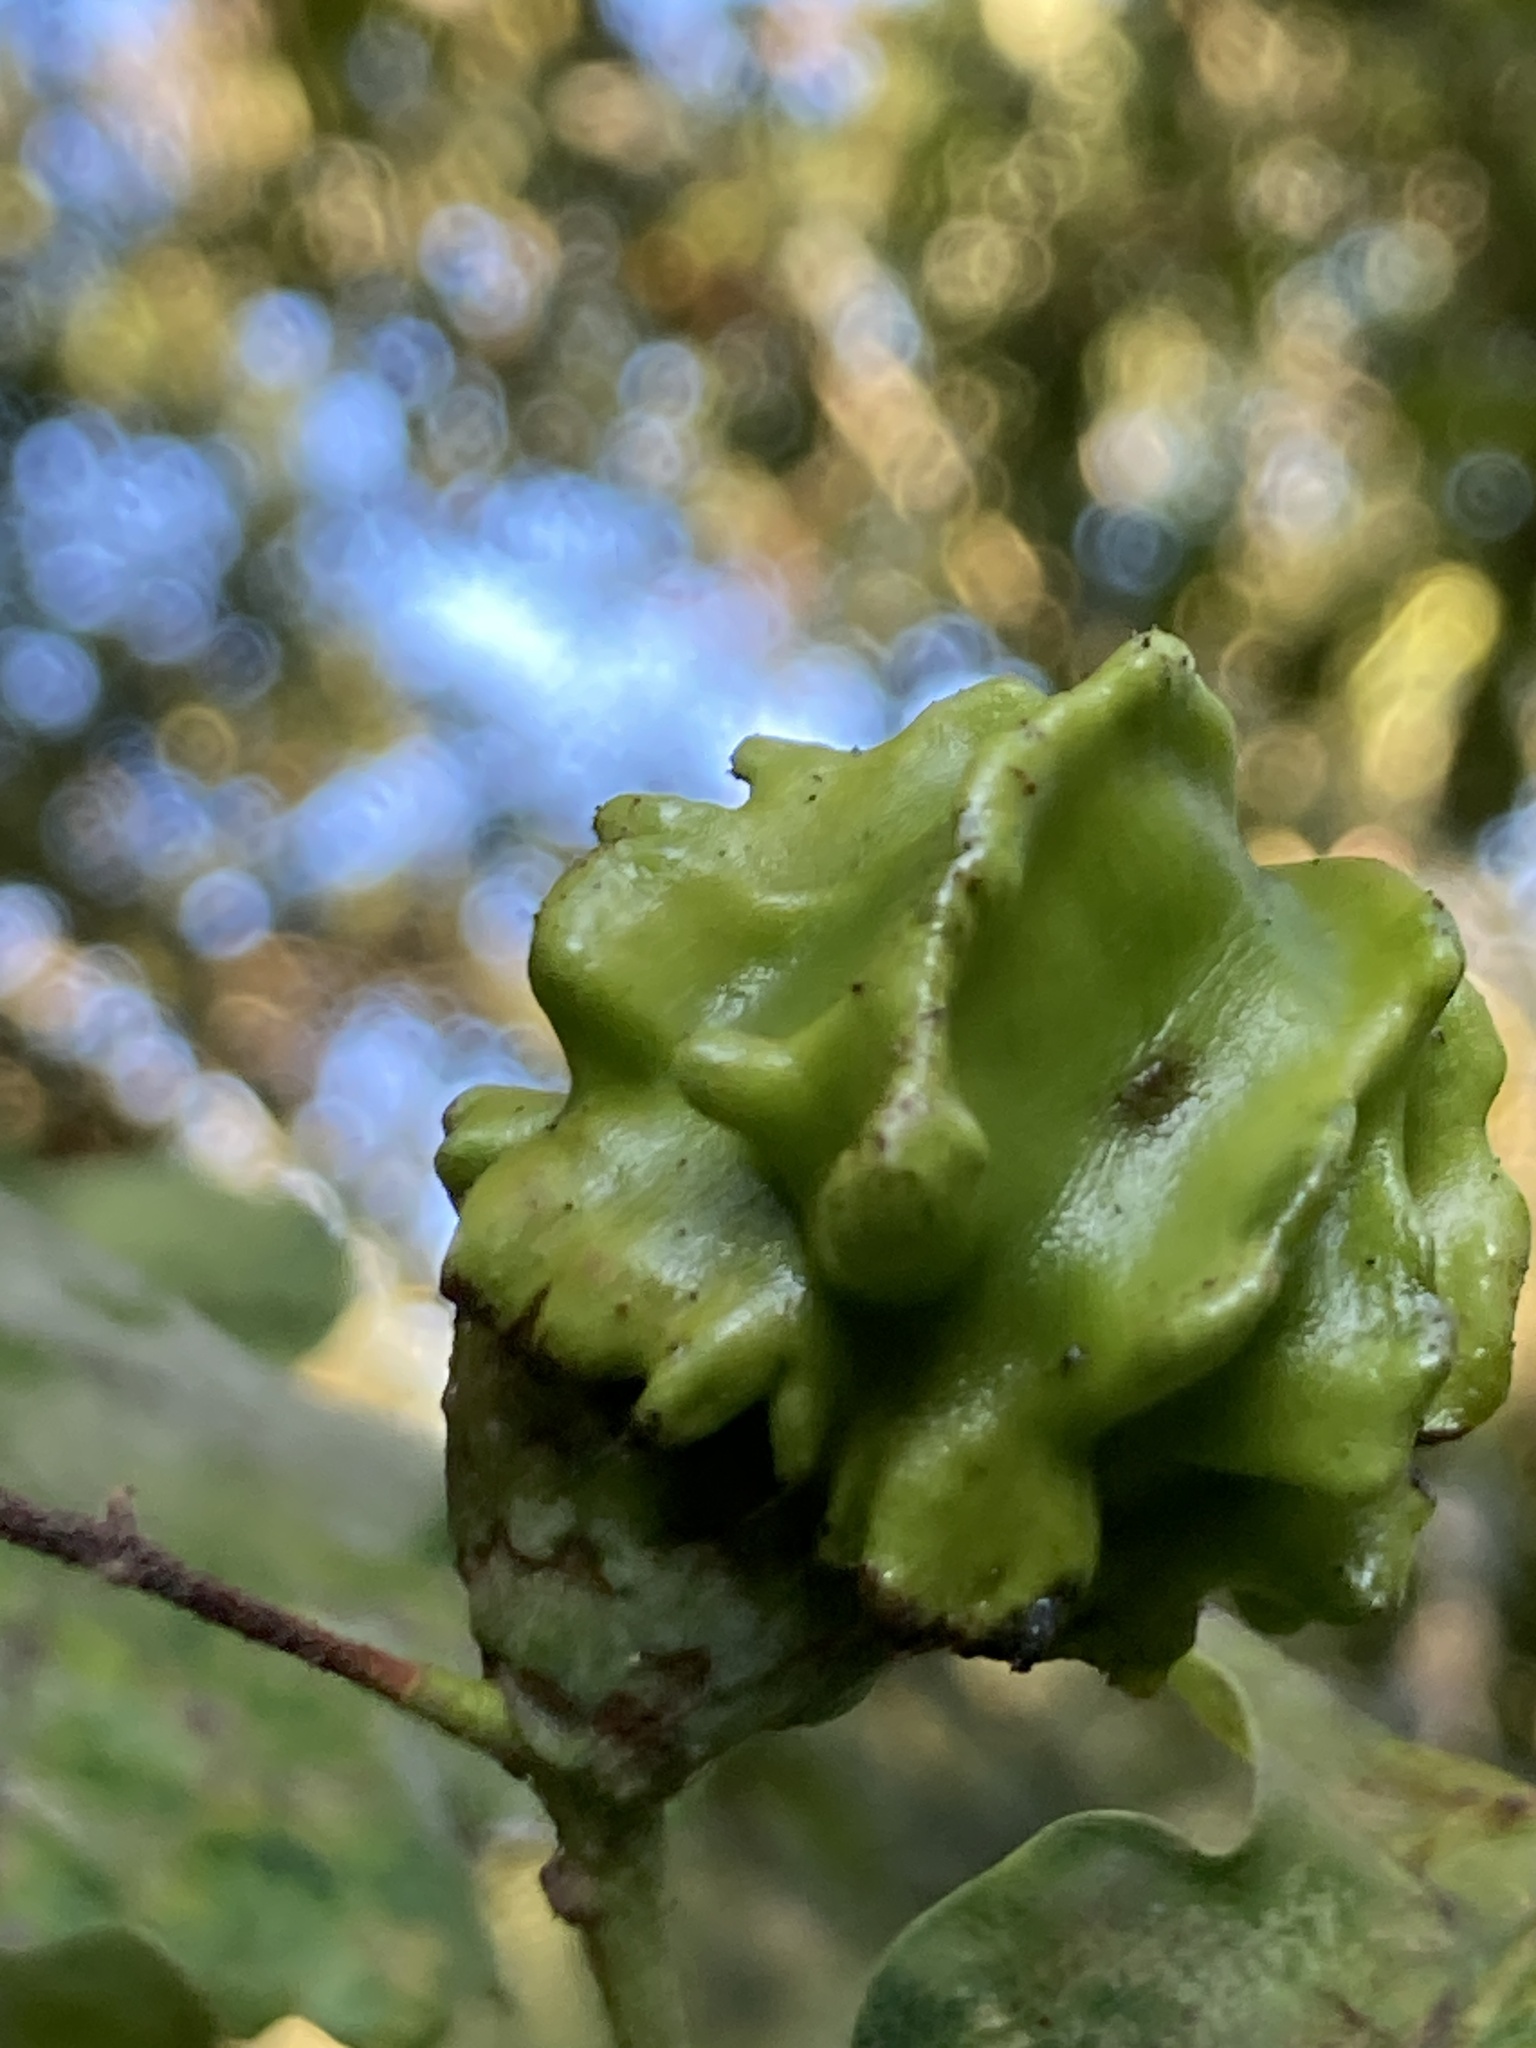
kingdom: Animalia
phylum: Arthropoda
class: Insecta
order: Hymenoptera
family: Cynipidae
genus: Andricus
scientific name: Andricus quercuscalicis
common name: Knopper gall
